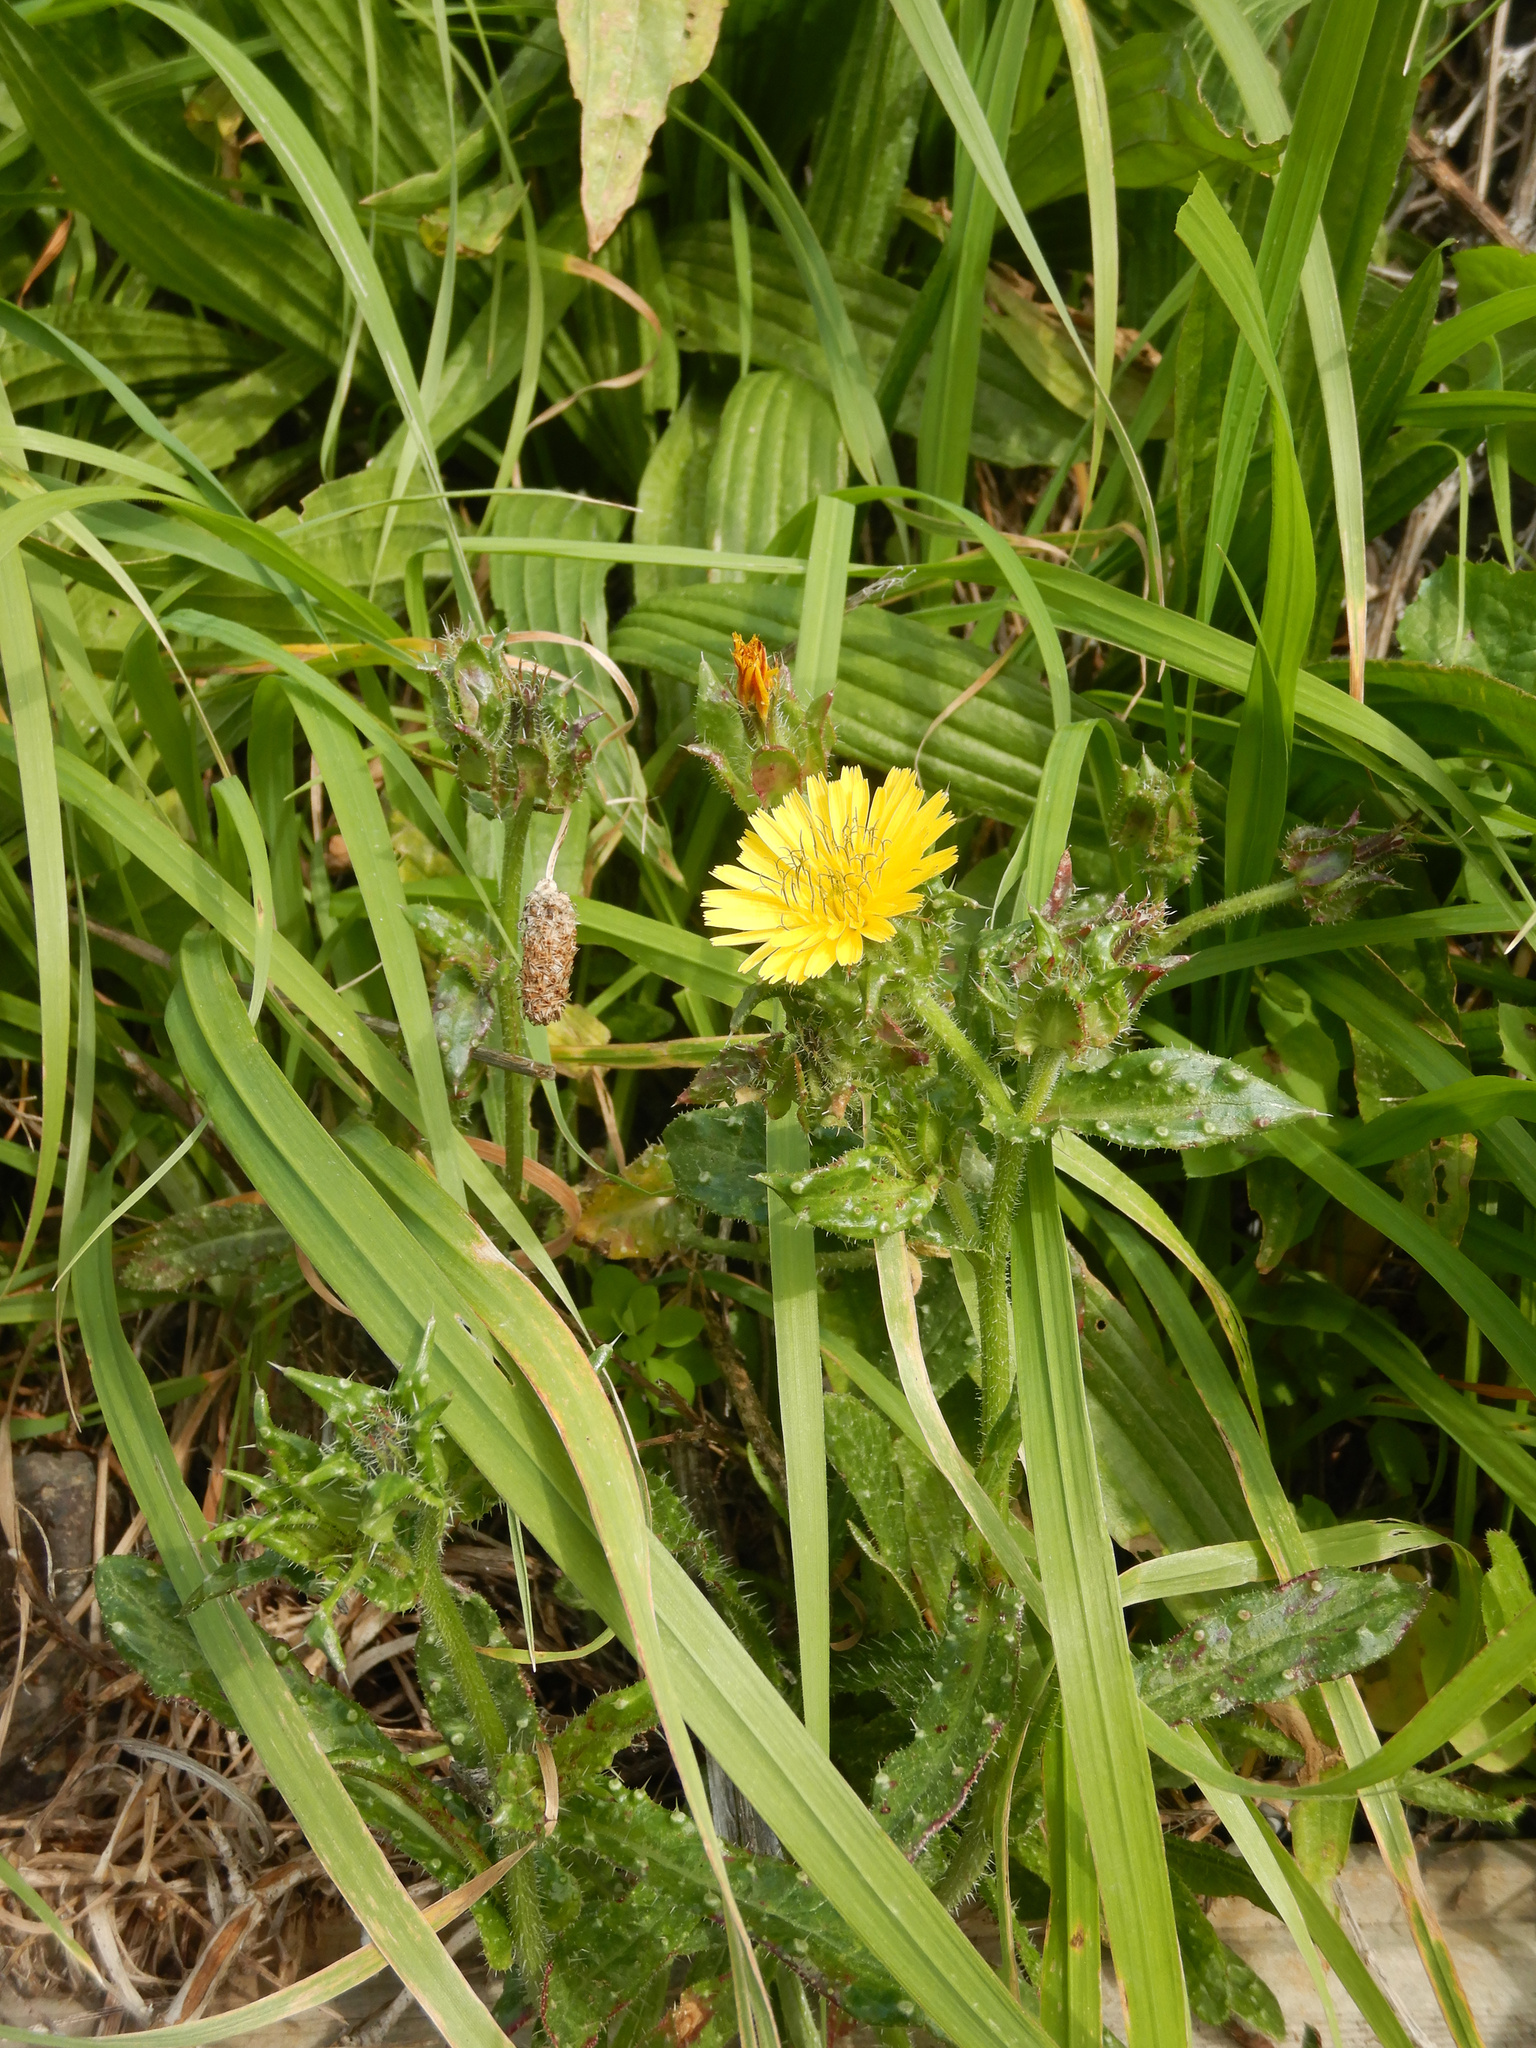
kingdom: Plantae
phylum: Tracheophyta
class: Magnoliopsida
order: Asterales
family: Asteraceae
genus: Helminthotheca
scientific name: Helminthotheca echioides
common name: Ox-tongue
